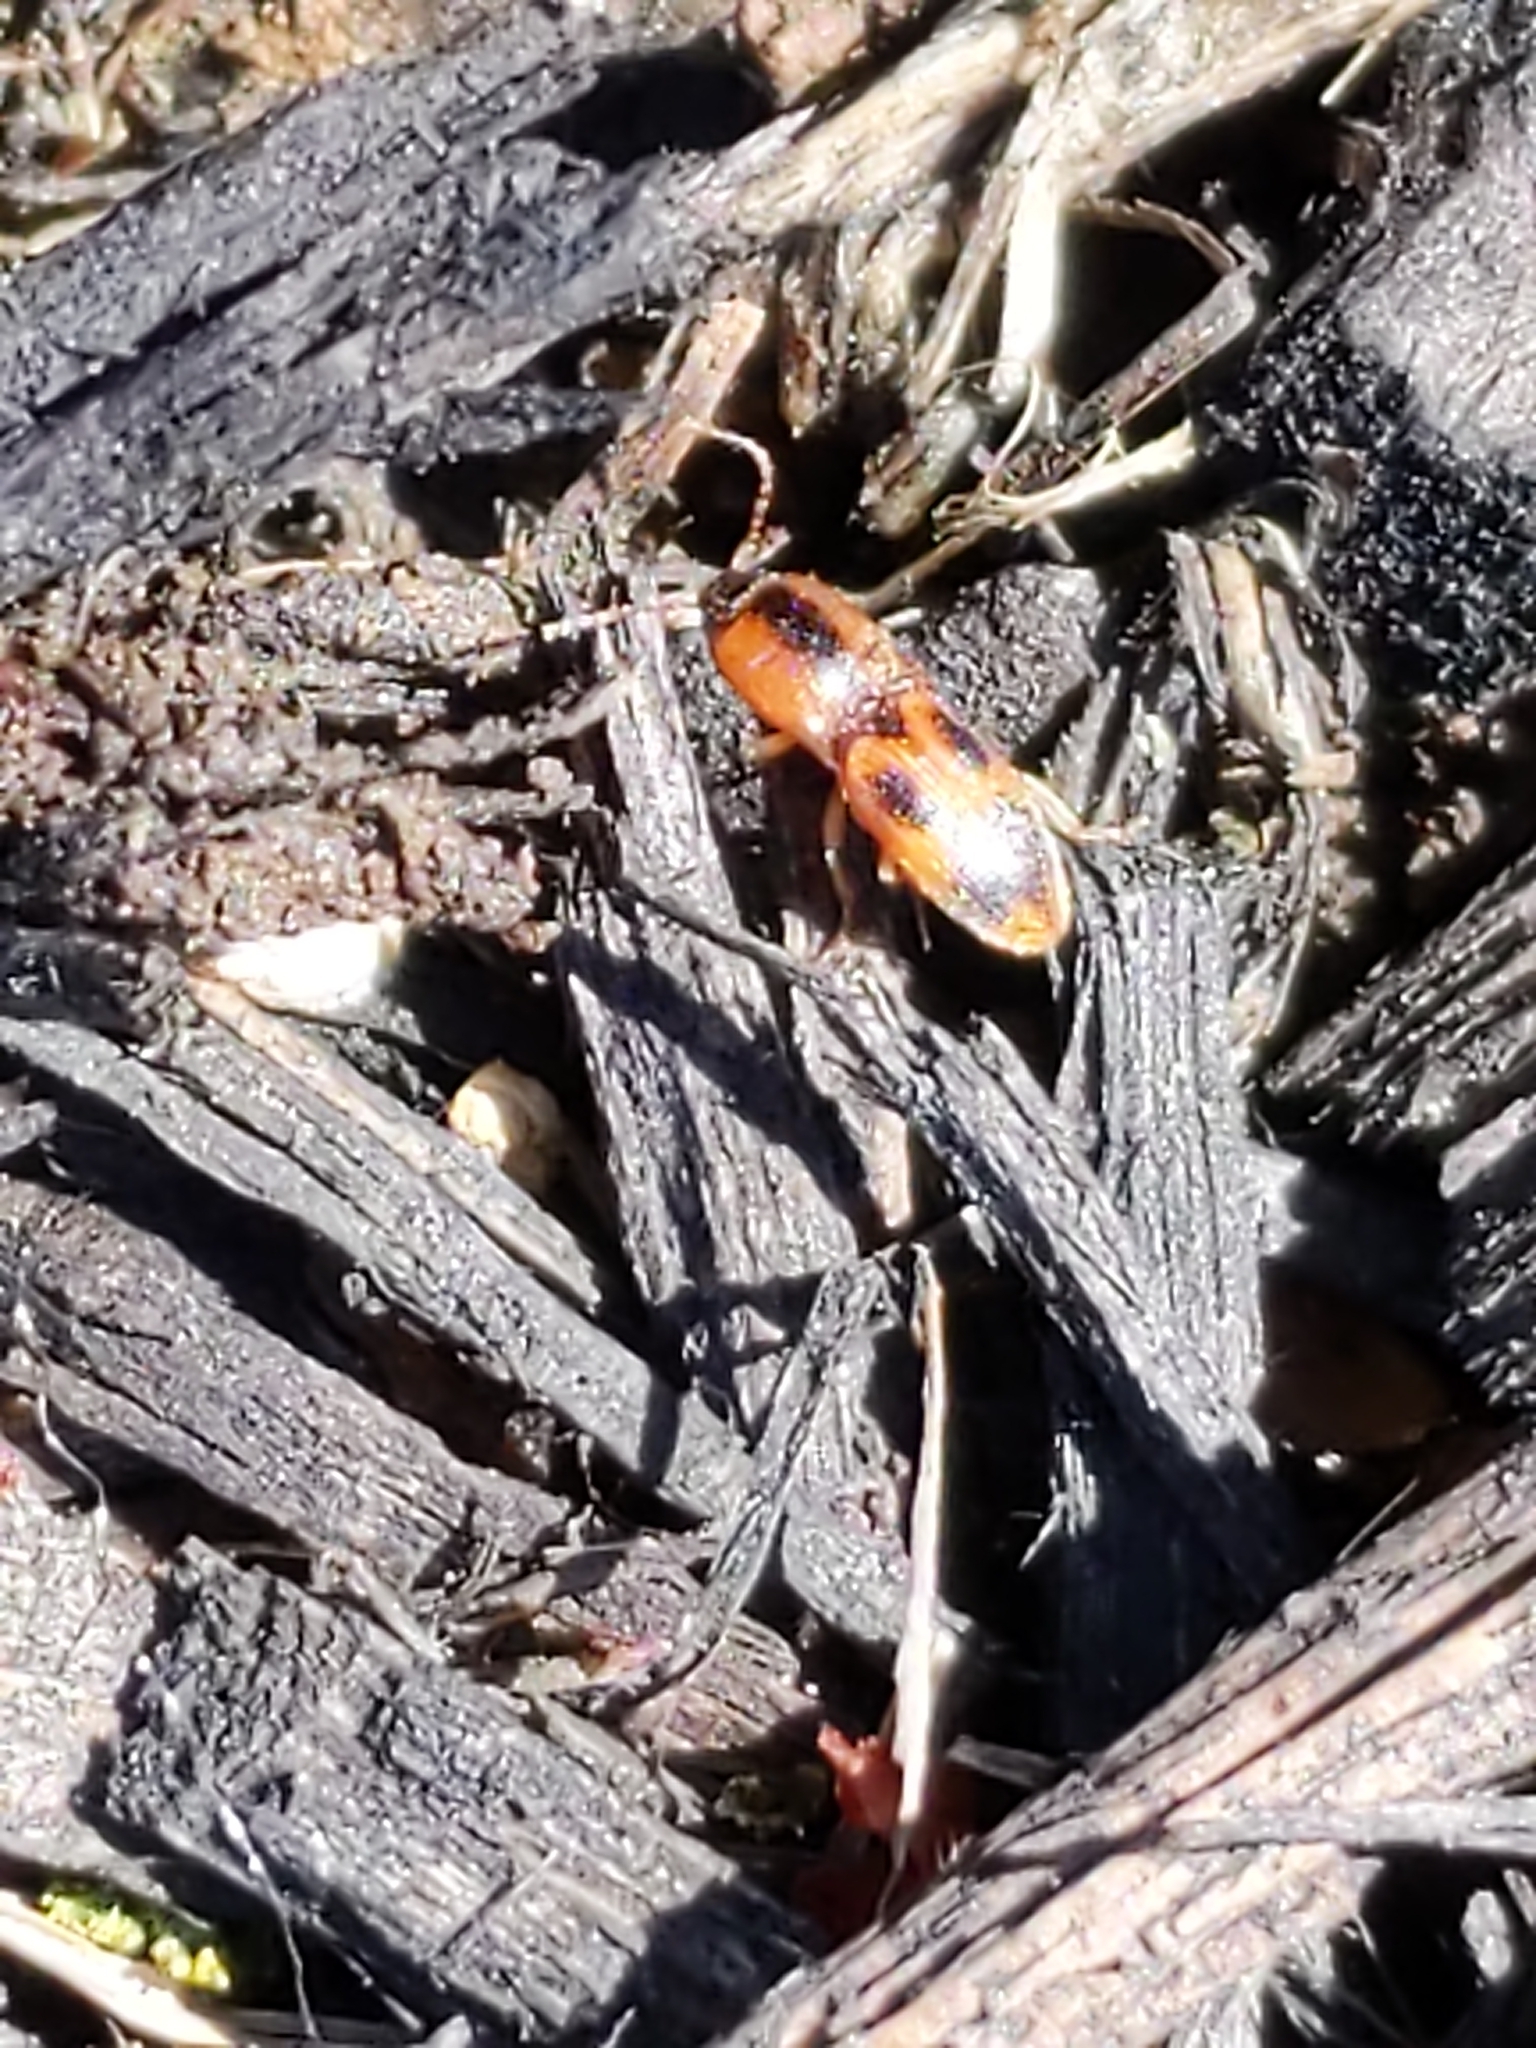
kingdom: Animalia
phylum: Arthropoda
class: Insecta
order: Coleoptera
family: Elateridae
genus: Aeolus
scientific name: Aeolus
